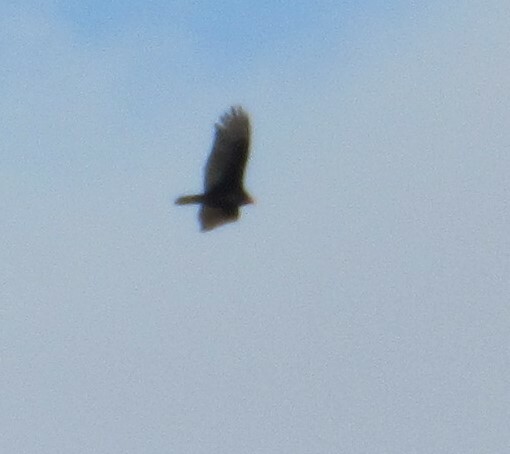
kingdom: Animalia
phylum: Chordata
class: Aves
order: Accipitriformes
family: Cathartidae
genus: Cathartes
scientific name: Cathartes aura
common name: Turkey vulture
